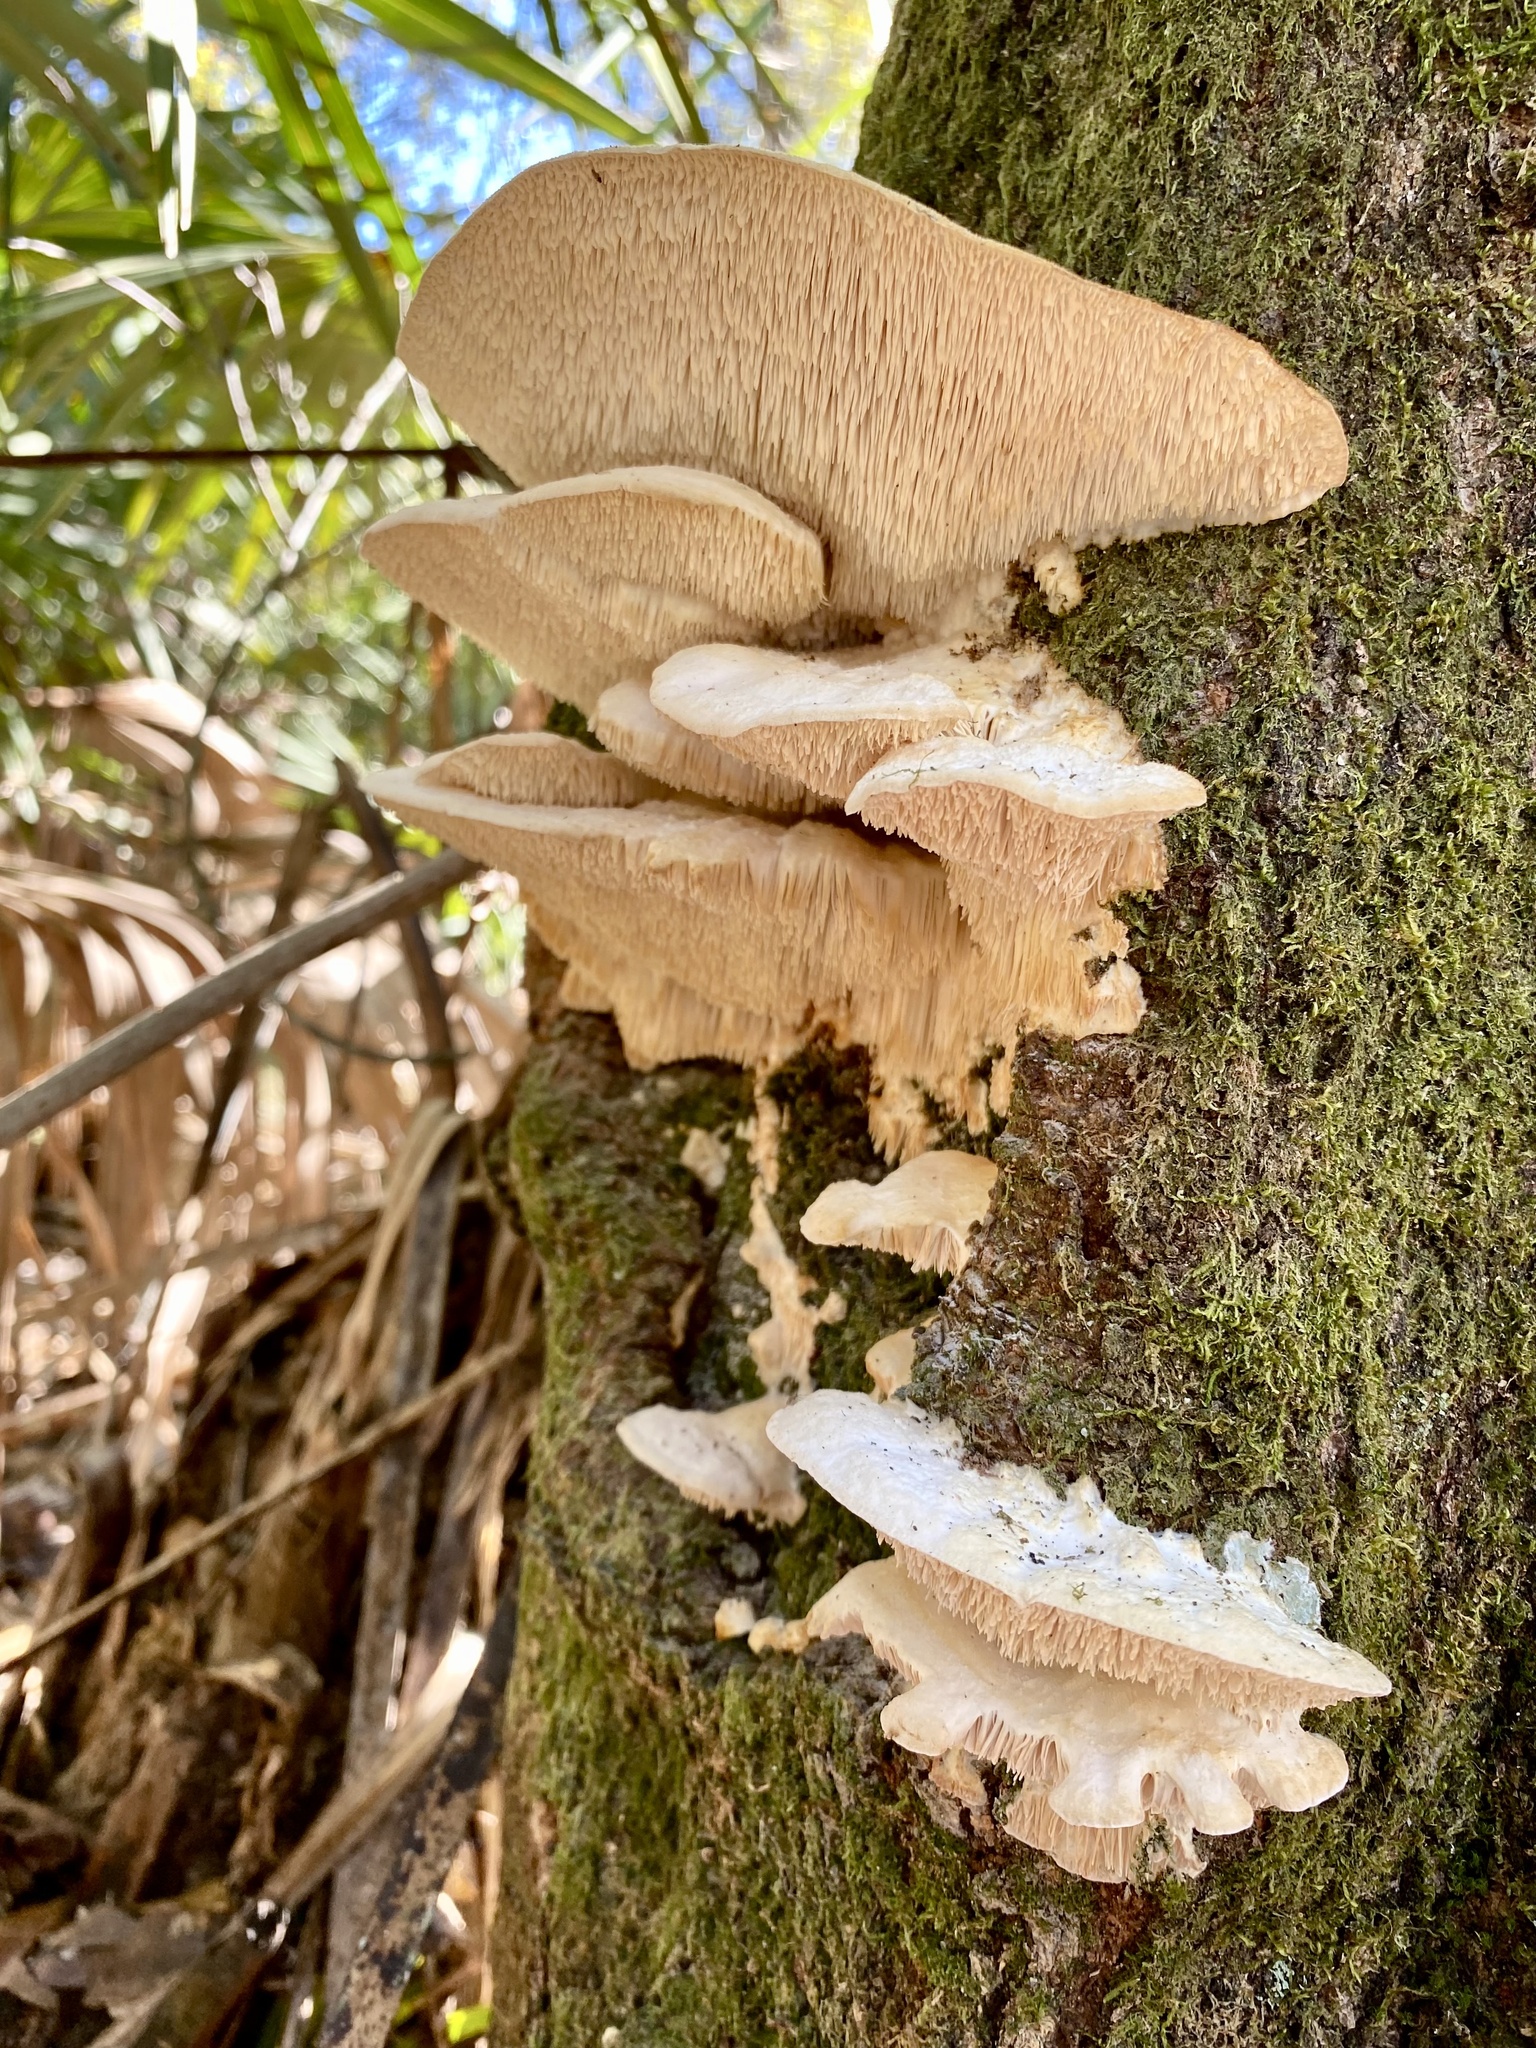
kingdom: Fungi
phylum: Basidiomycota
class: Agaricomycetes
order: Polyporales
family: Meruliaceae
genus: Irpiciporus
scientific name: Irpiciporus pachyodon
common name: Marshmallow polypore
